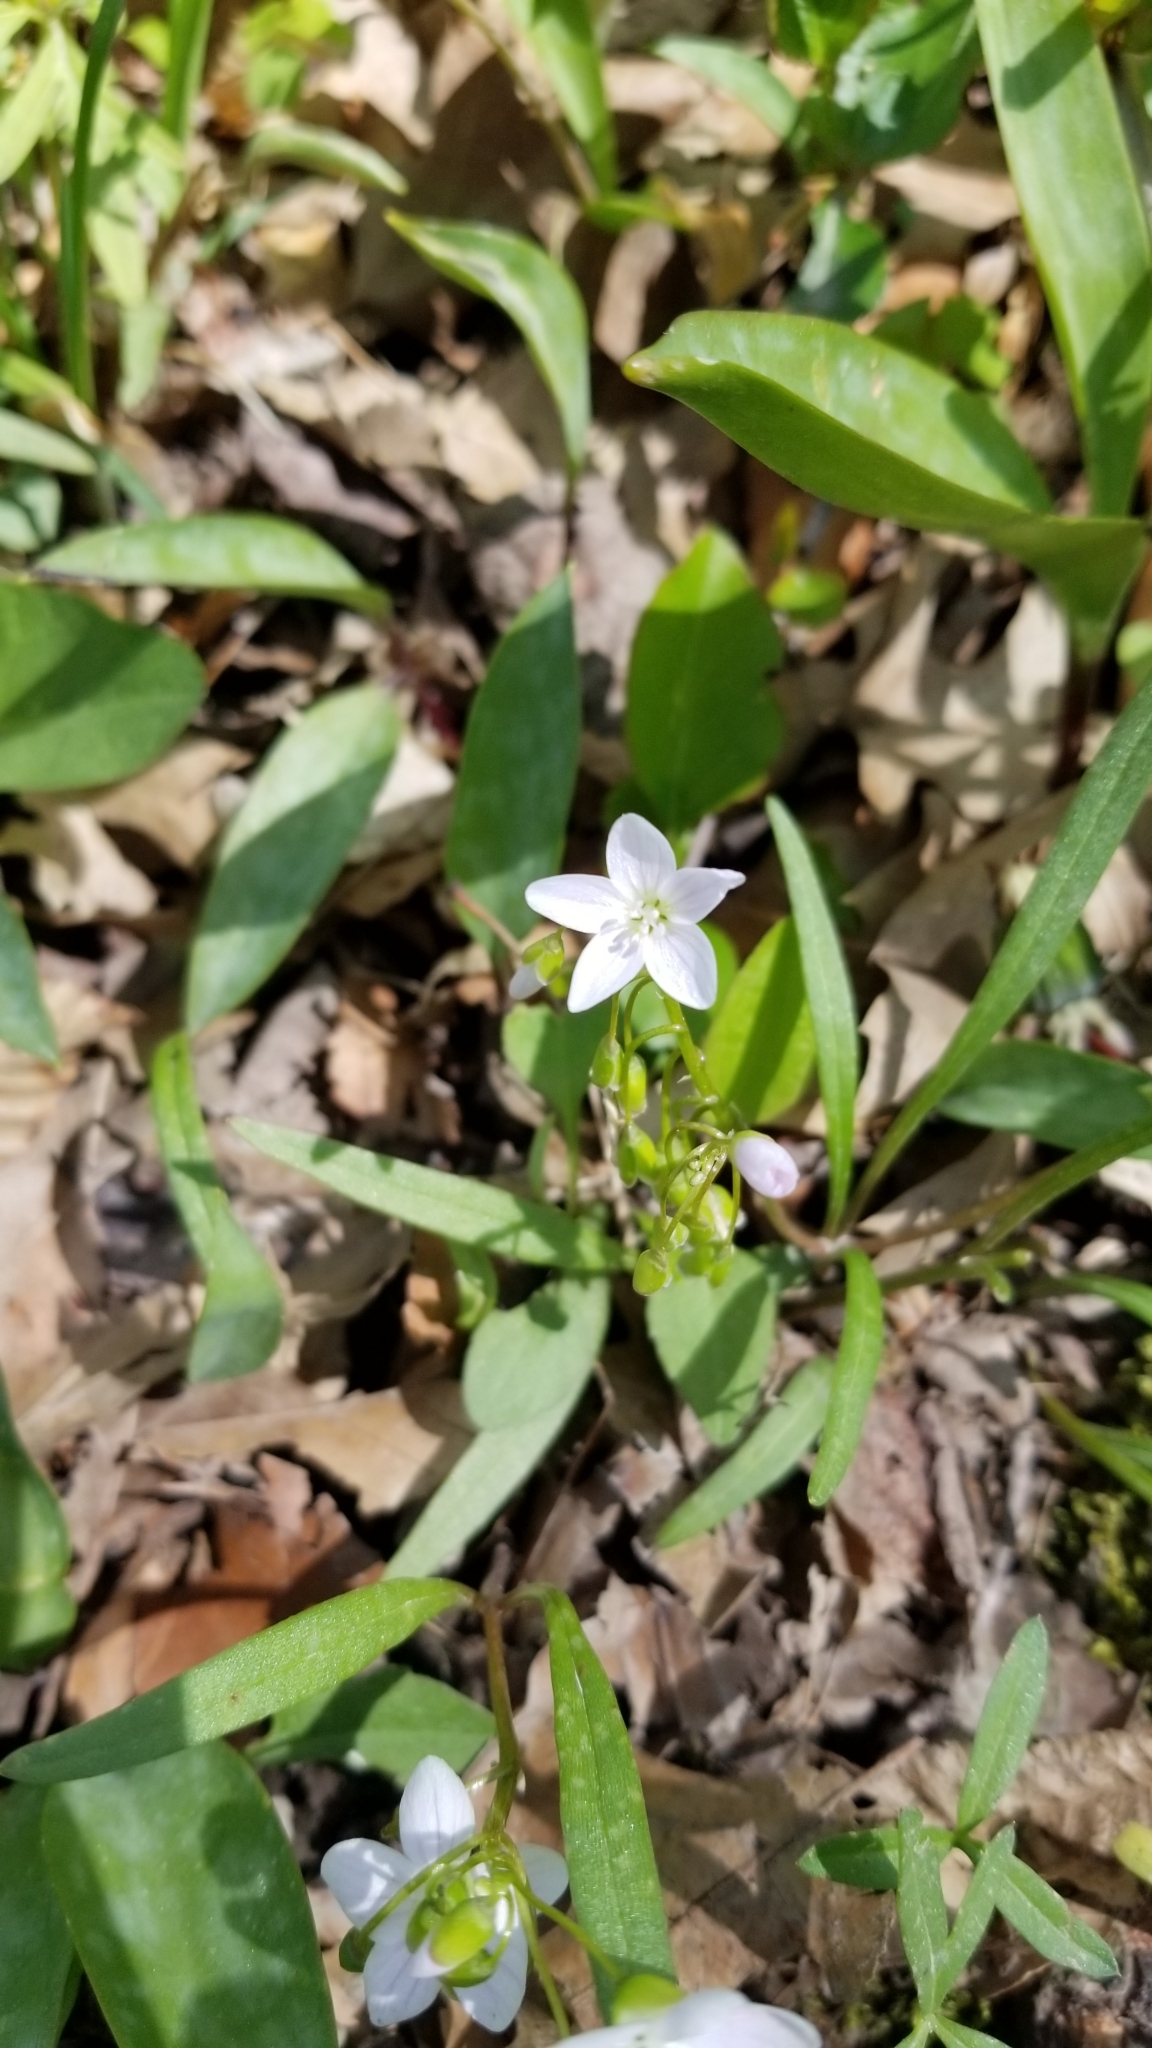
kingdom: Plantae
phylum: Tracheophyta
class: Magnoliopsida
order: Caryophyllales
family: Montiaceae
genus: Claytonia
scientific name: Claytonia virginica
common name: Virginia springbeauty
